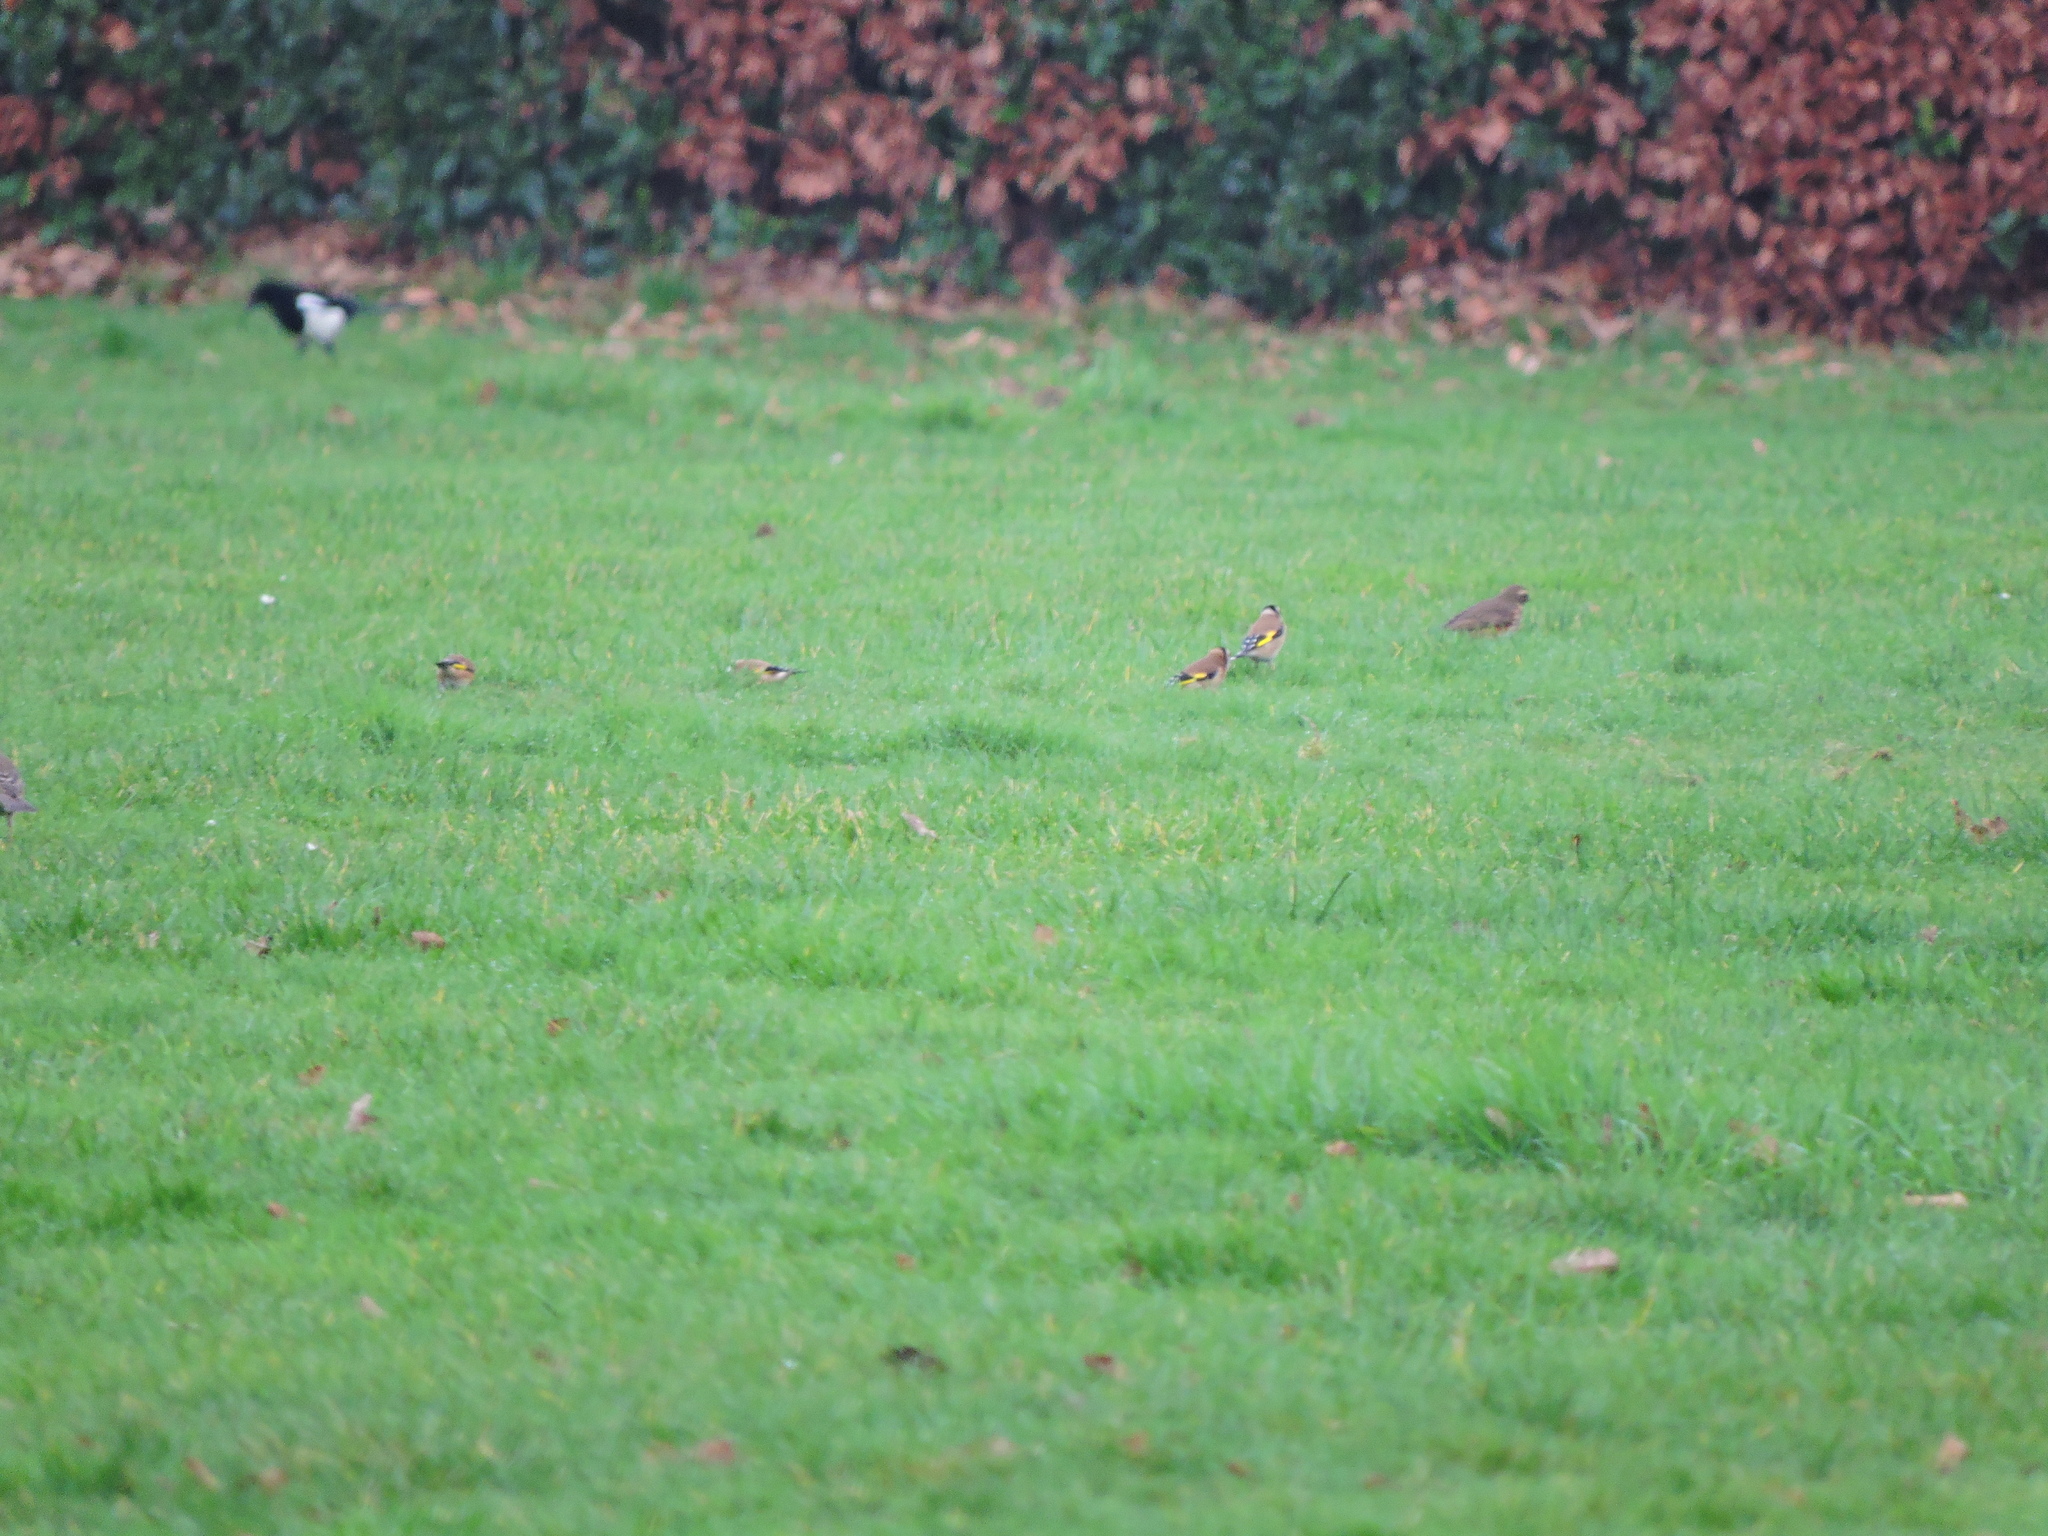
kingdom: Animalia
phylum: Chordata
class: Aves
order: Passeriformes
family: Fringillidae
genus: Carduelis
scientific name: Carduelis carduelis
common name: European goldfinch
